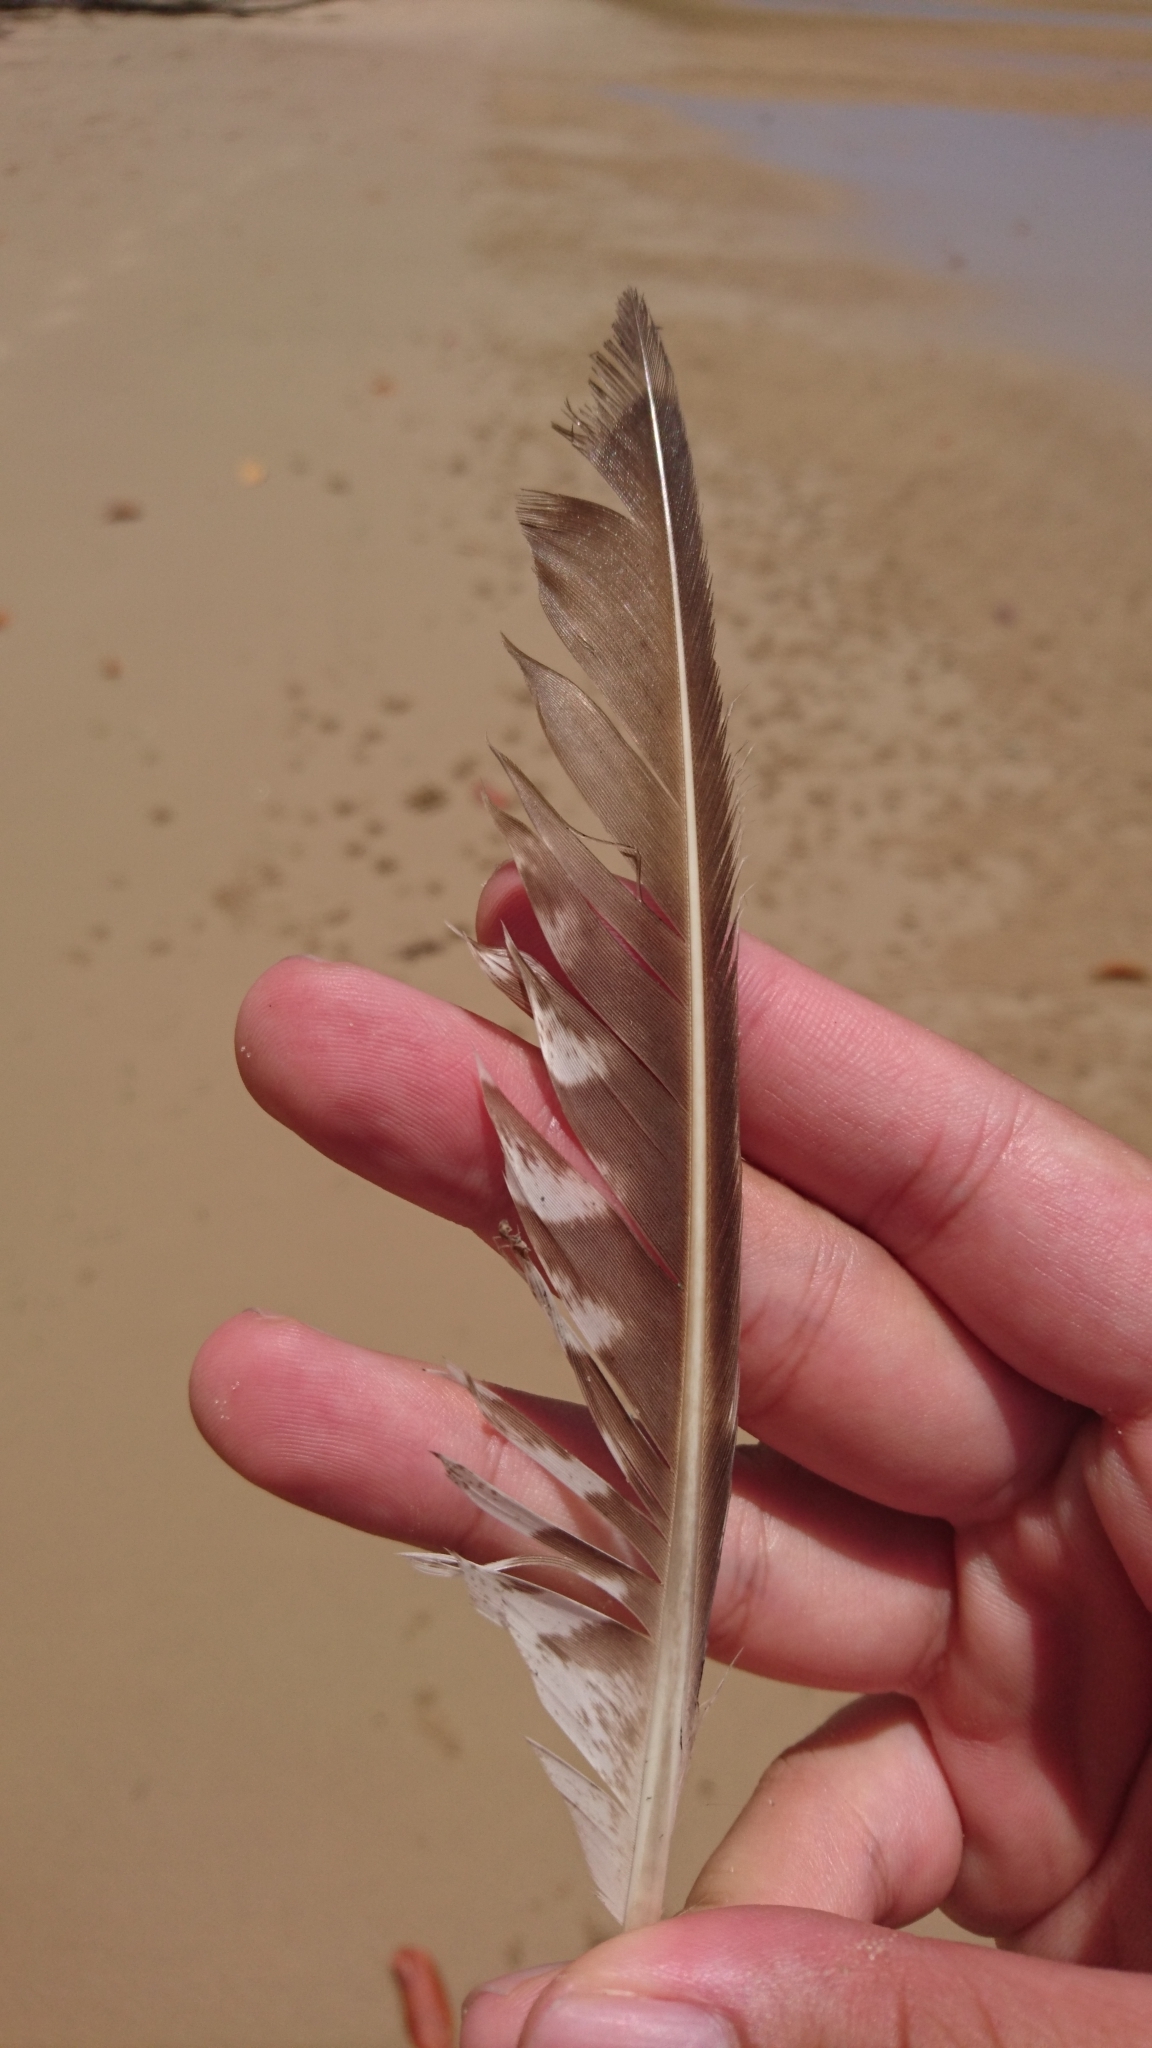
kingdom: Animalia
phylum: Chordata
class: Aves
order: Charadriiformes
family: Scolopacidae
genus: Numenius
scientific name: Numenius phaeopus
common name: Whimbrel
